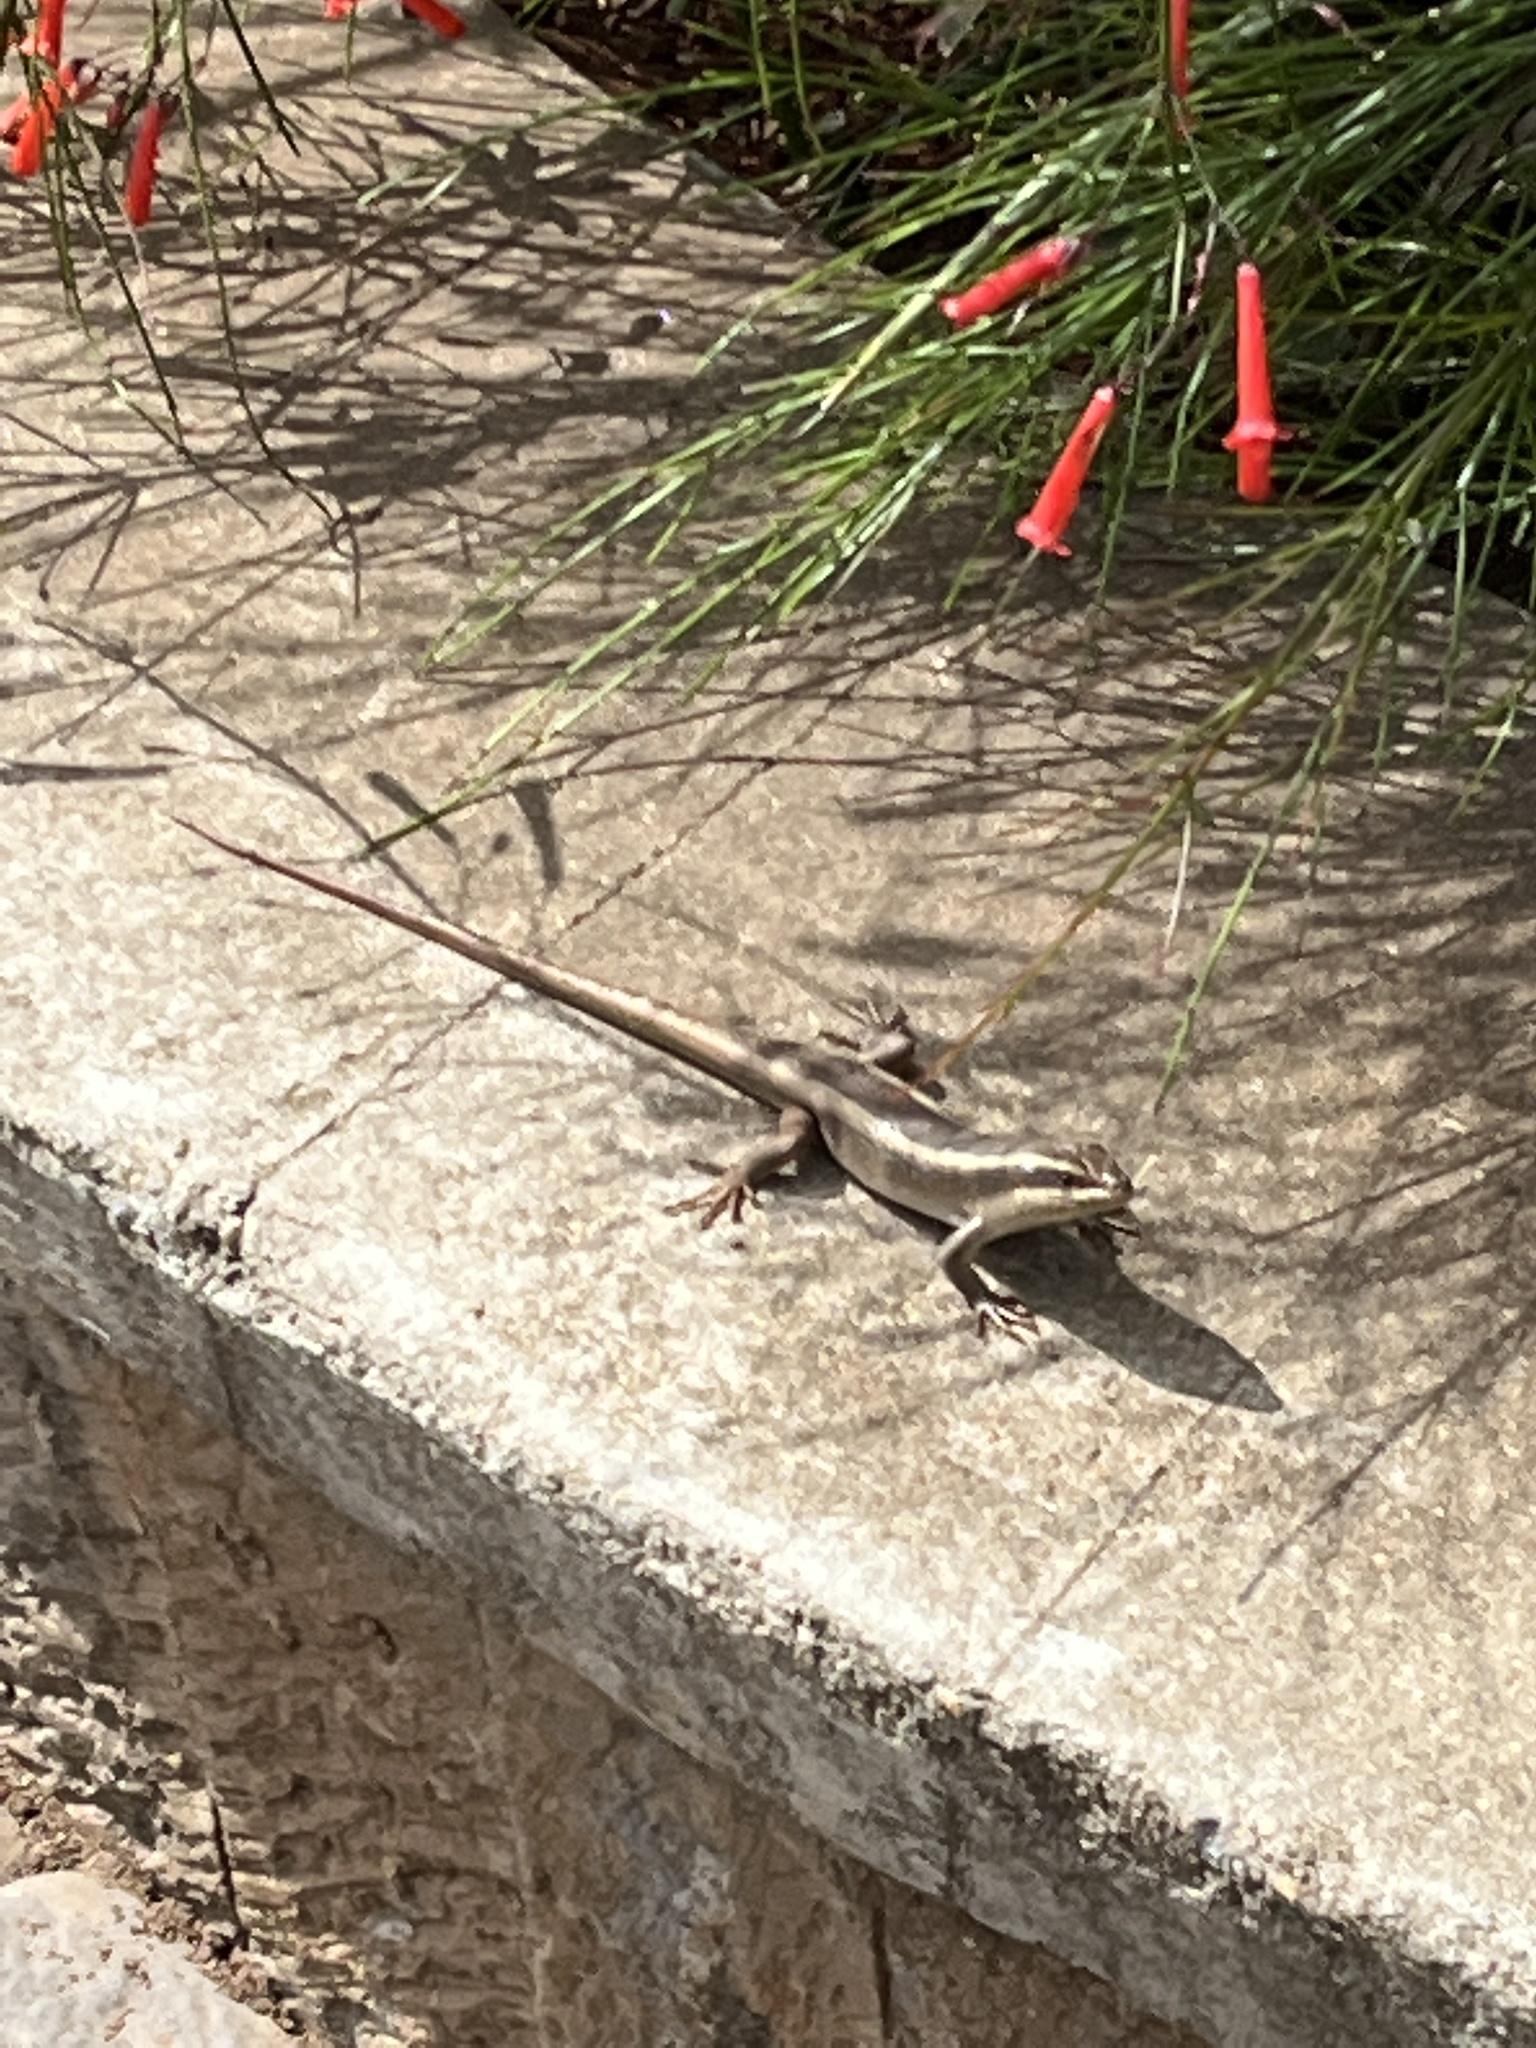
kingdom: Animalia
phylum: Chordata
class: Squamata
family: Scincidae
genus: Trachylepis
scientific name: Trachylepis striata
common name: African striped mabuya
